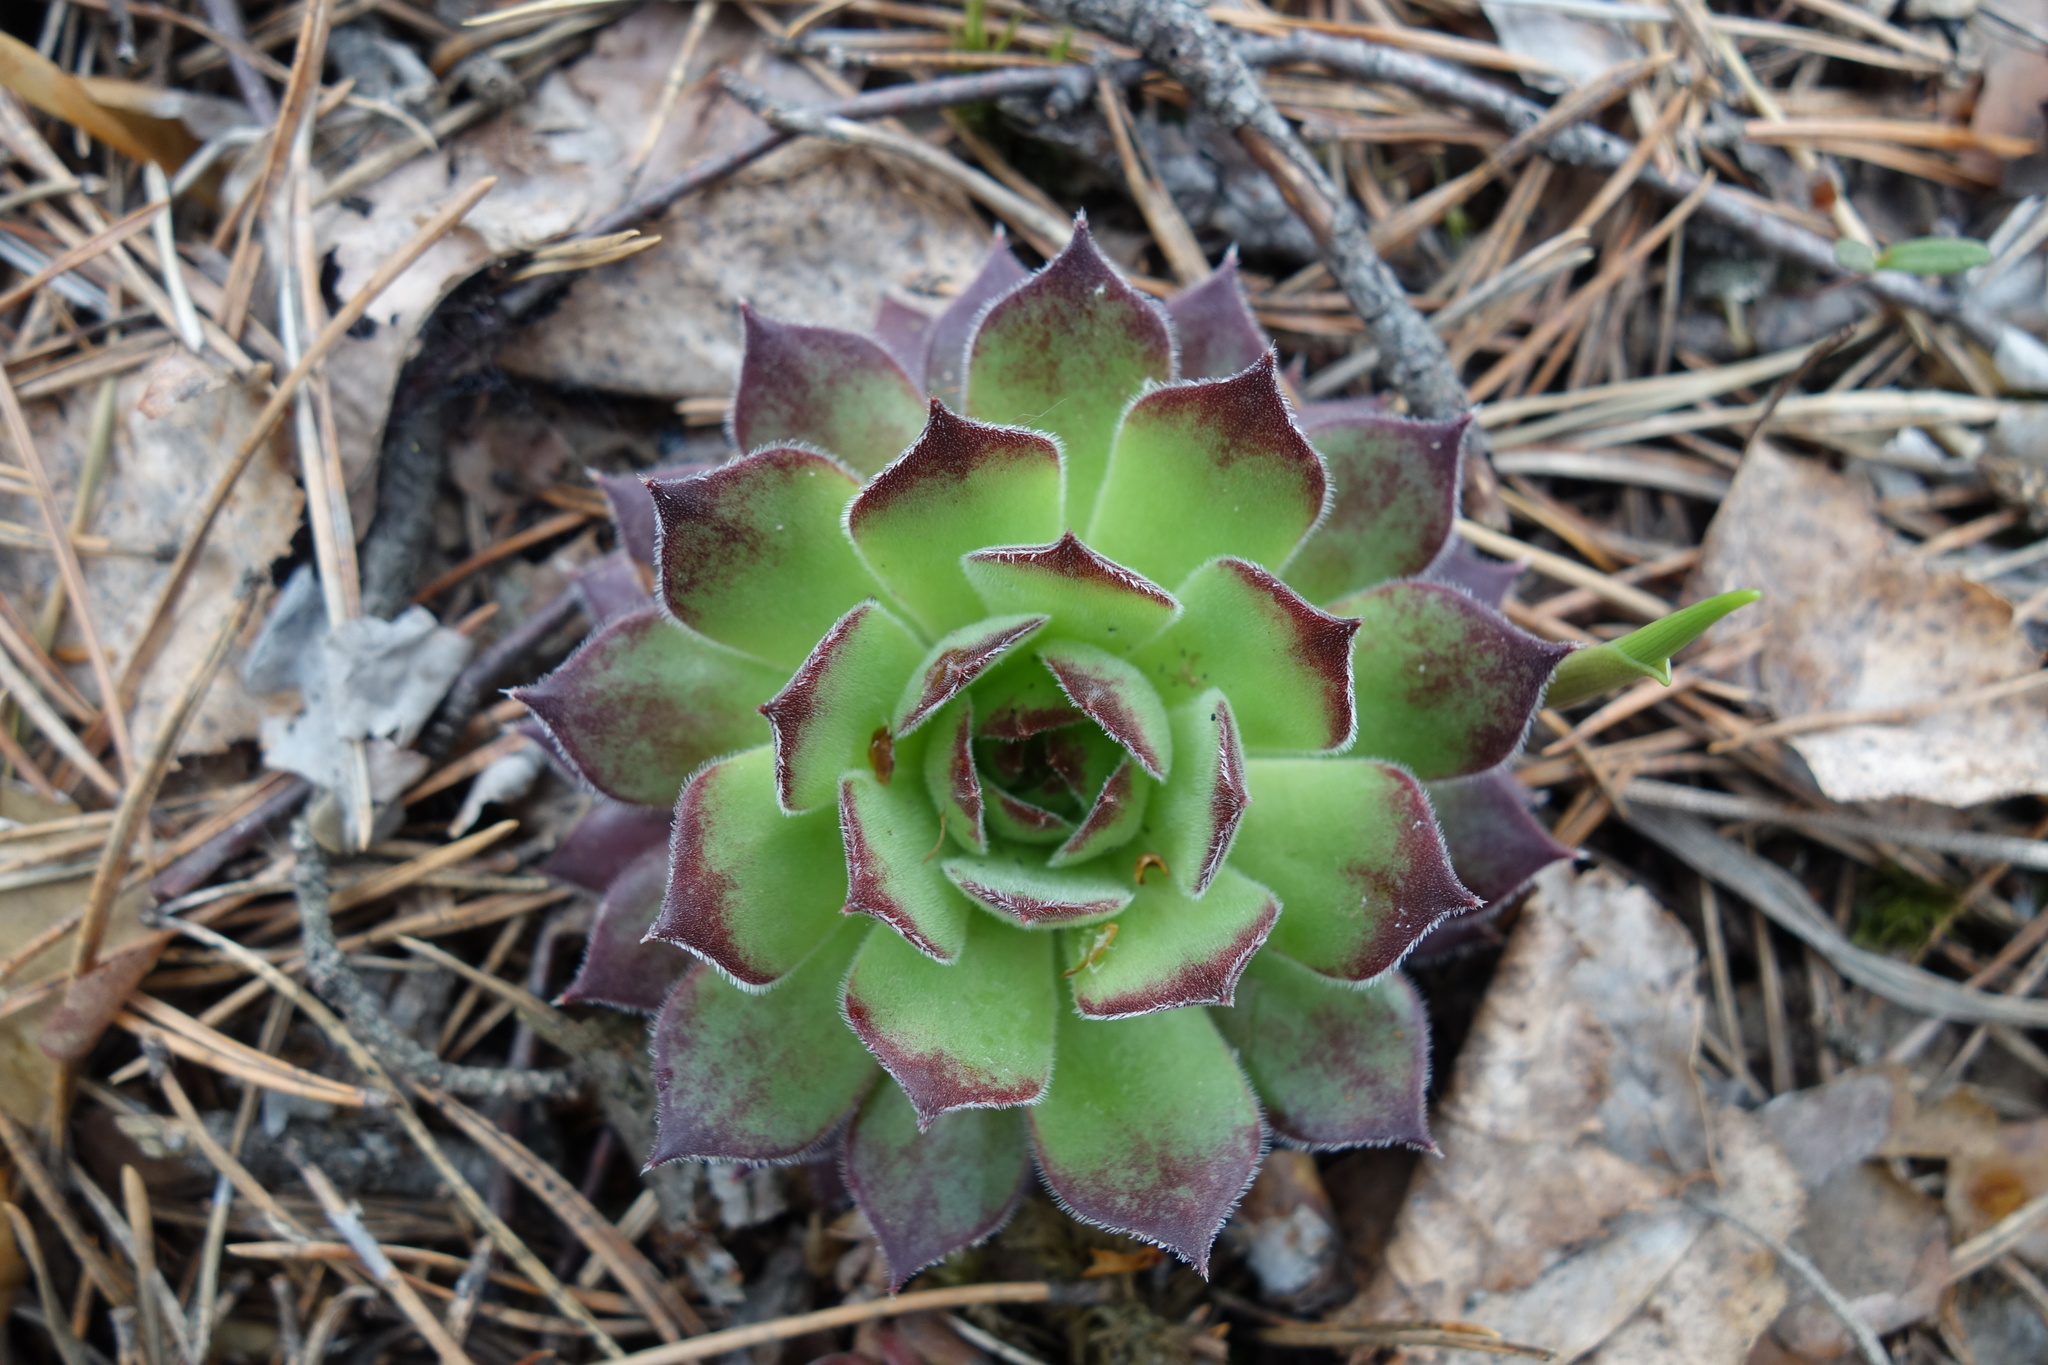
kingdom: Plantae
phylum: Tracheophyta
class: Magnoliopsida
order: Saxifragales
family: Crassulaceae
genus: Sempervivum
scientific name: Sempervivum ruthenicum
